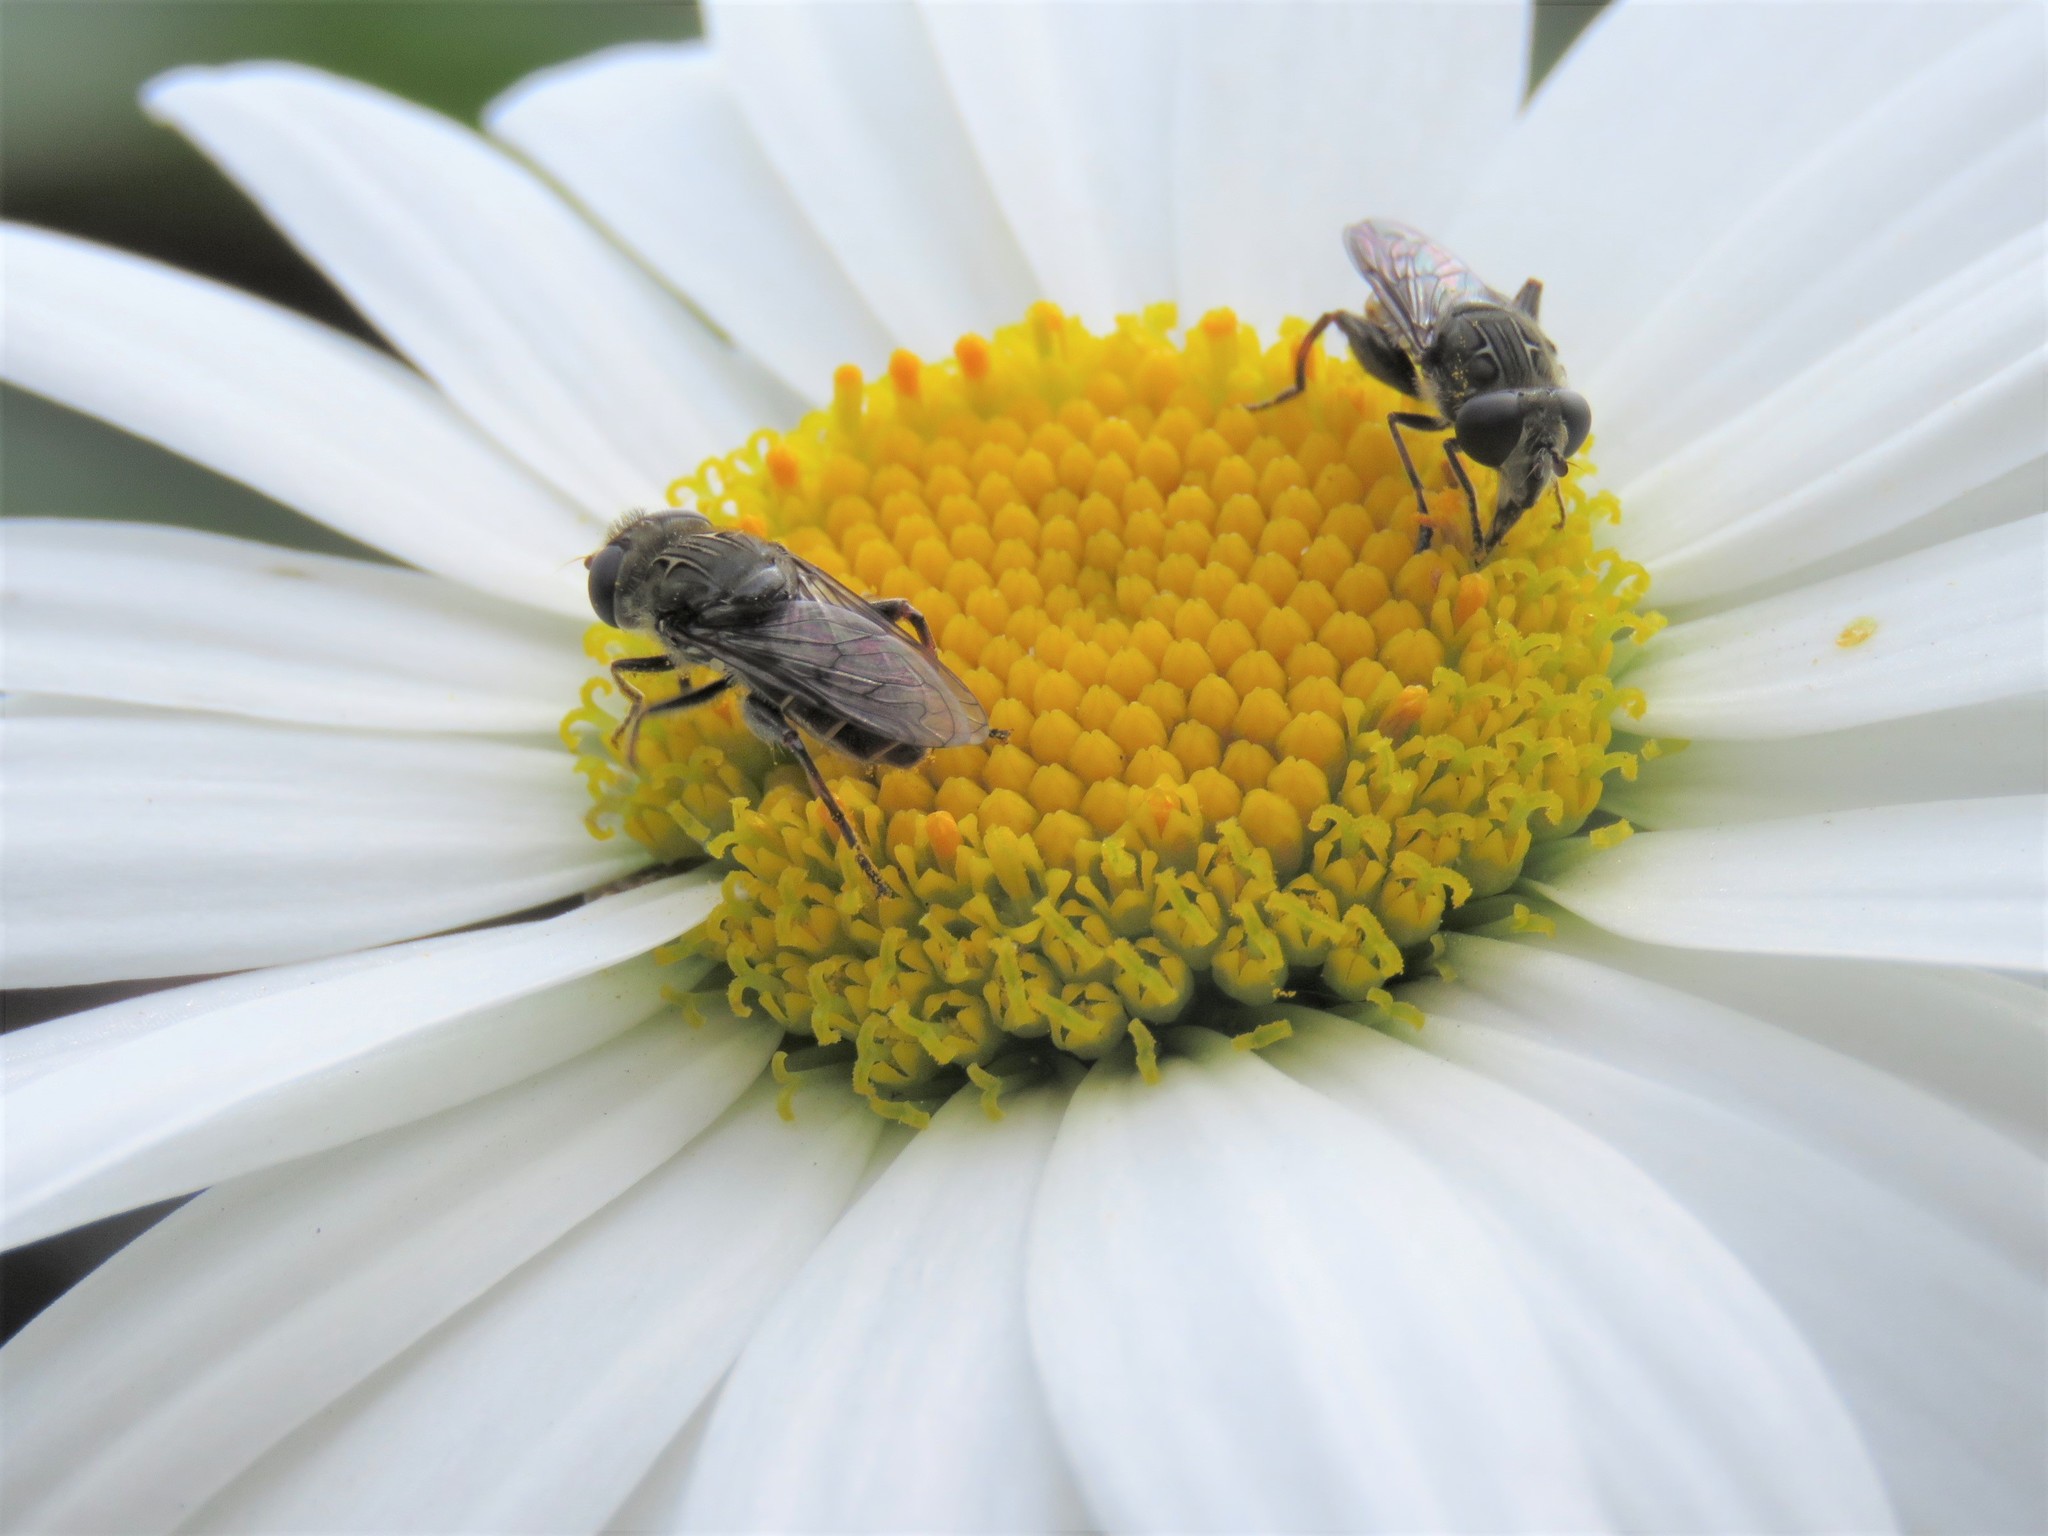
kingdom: Animalia
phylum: Arthropoda
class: Insecta
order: Diptera
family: Syrphidae
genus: Asemosyrphus
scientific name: Asemosyrphus
